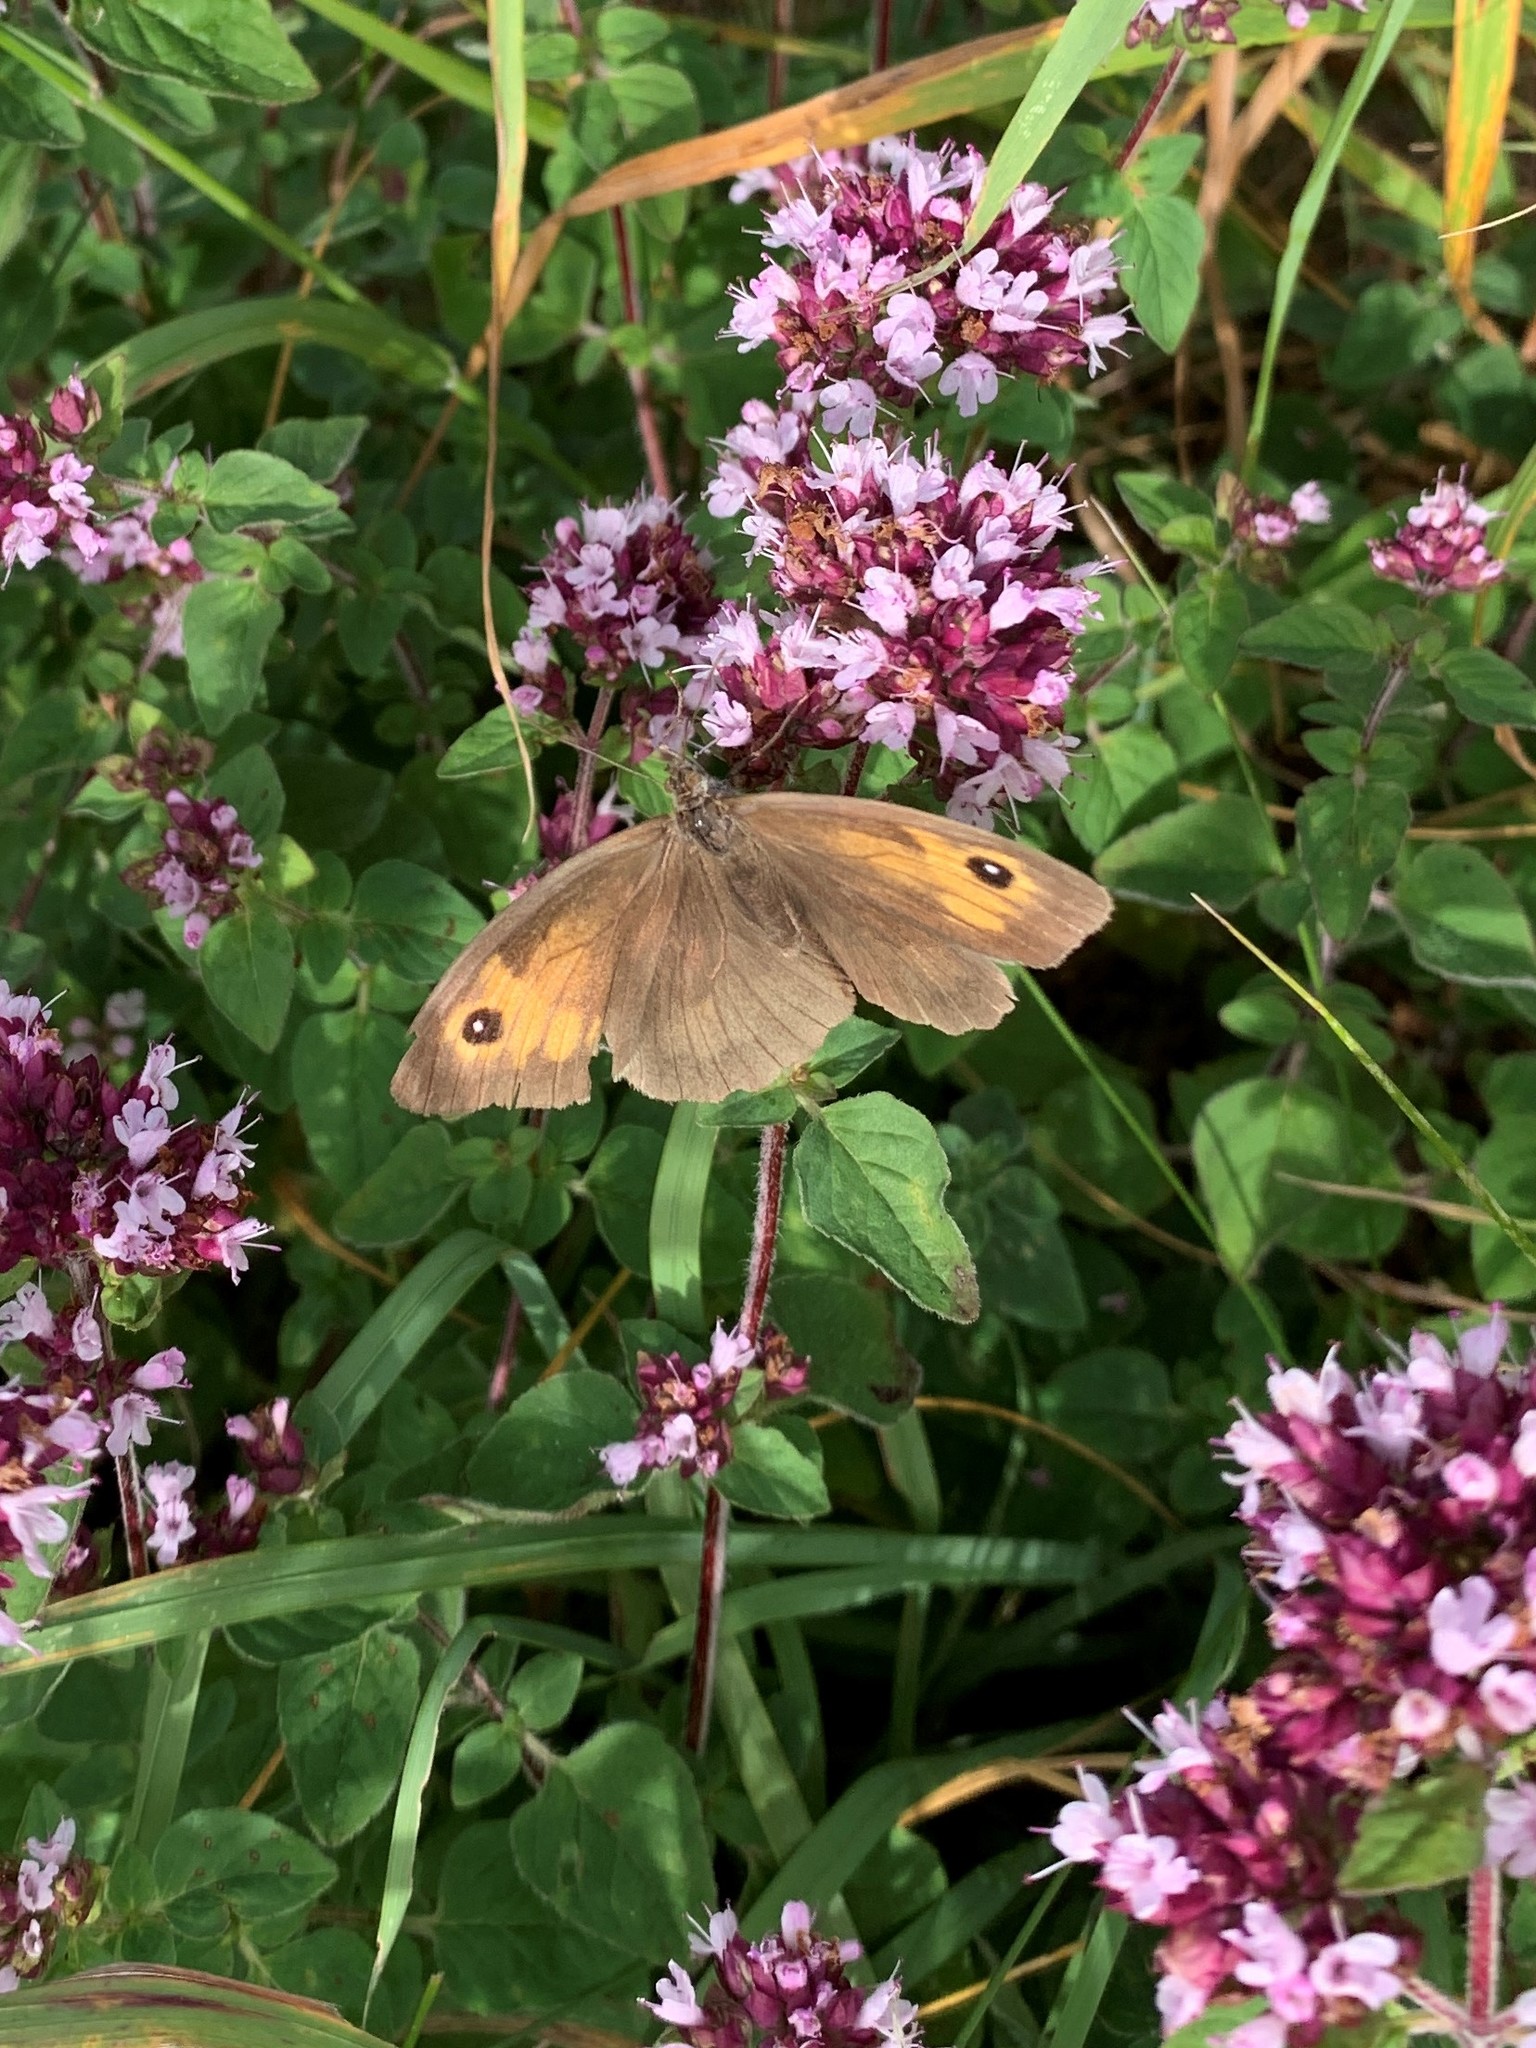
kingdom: Animalia
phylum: Arthropoda
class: Insecta
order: Lepidoptera
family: Nymphalidae
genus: Maniola
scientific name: Maniola jurtina
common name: Meadow brown
